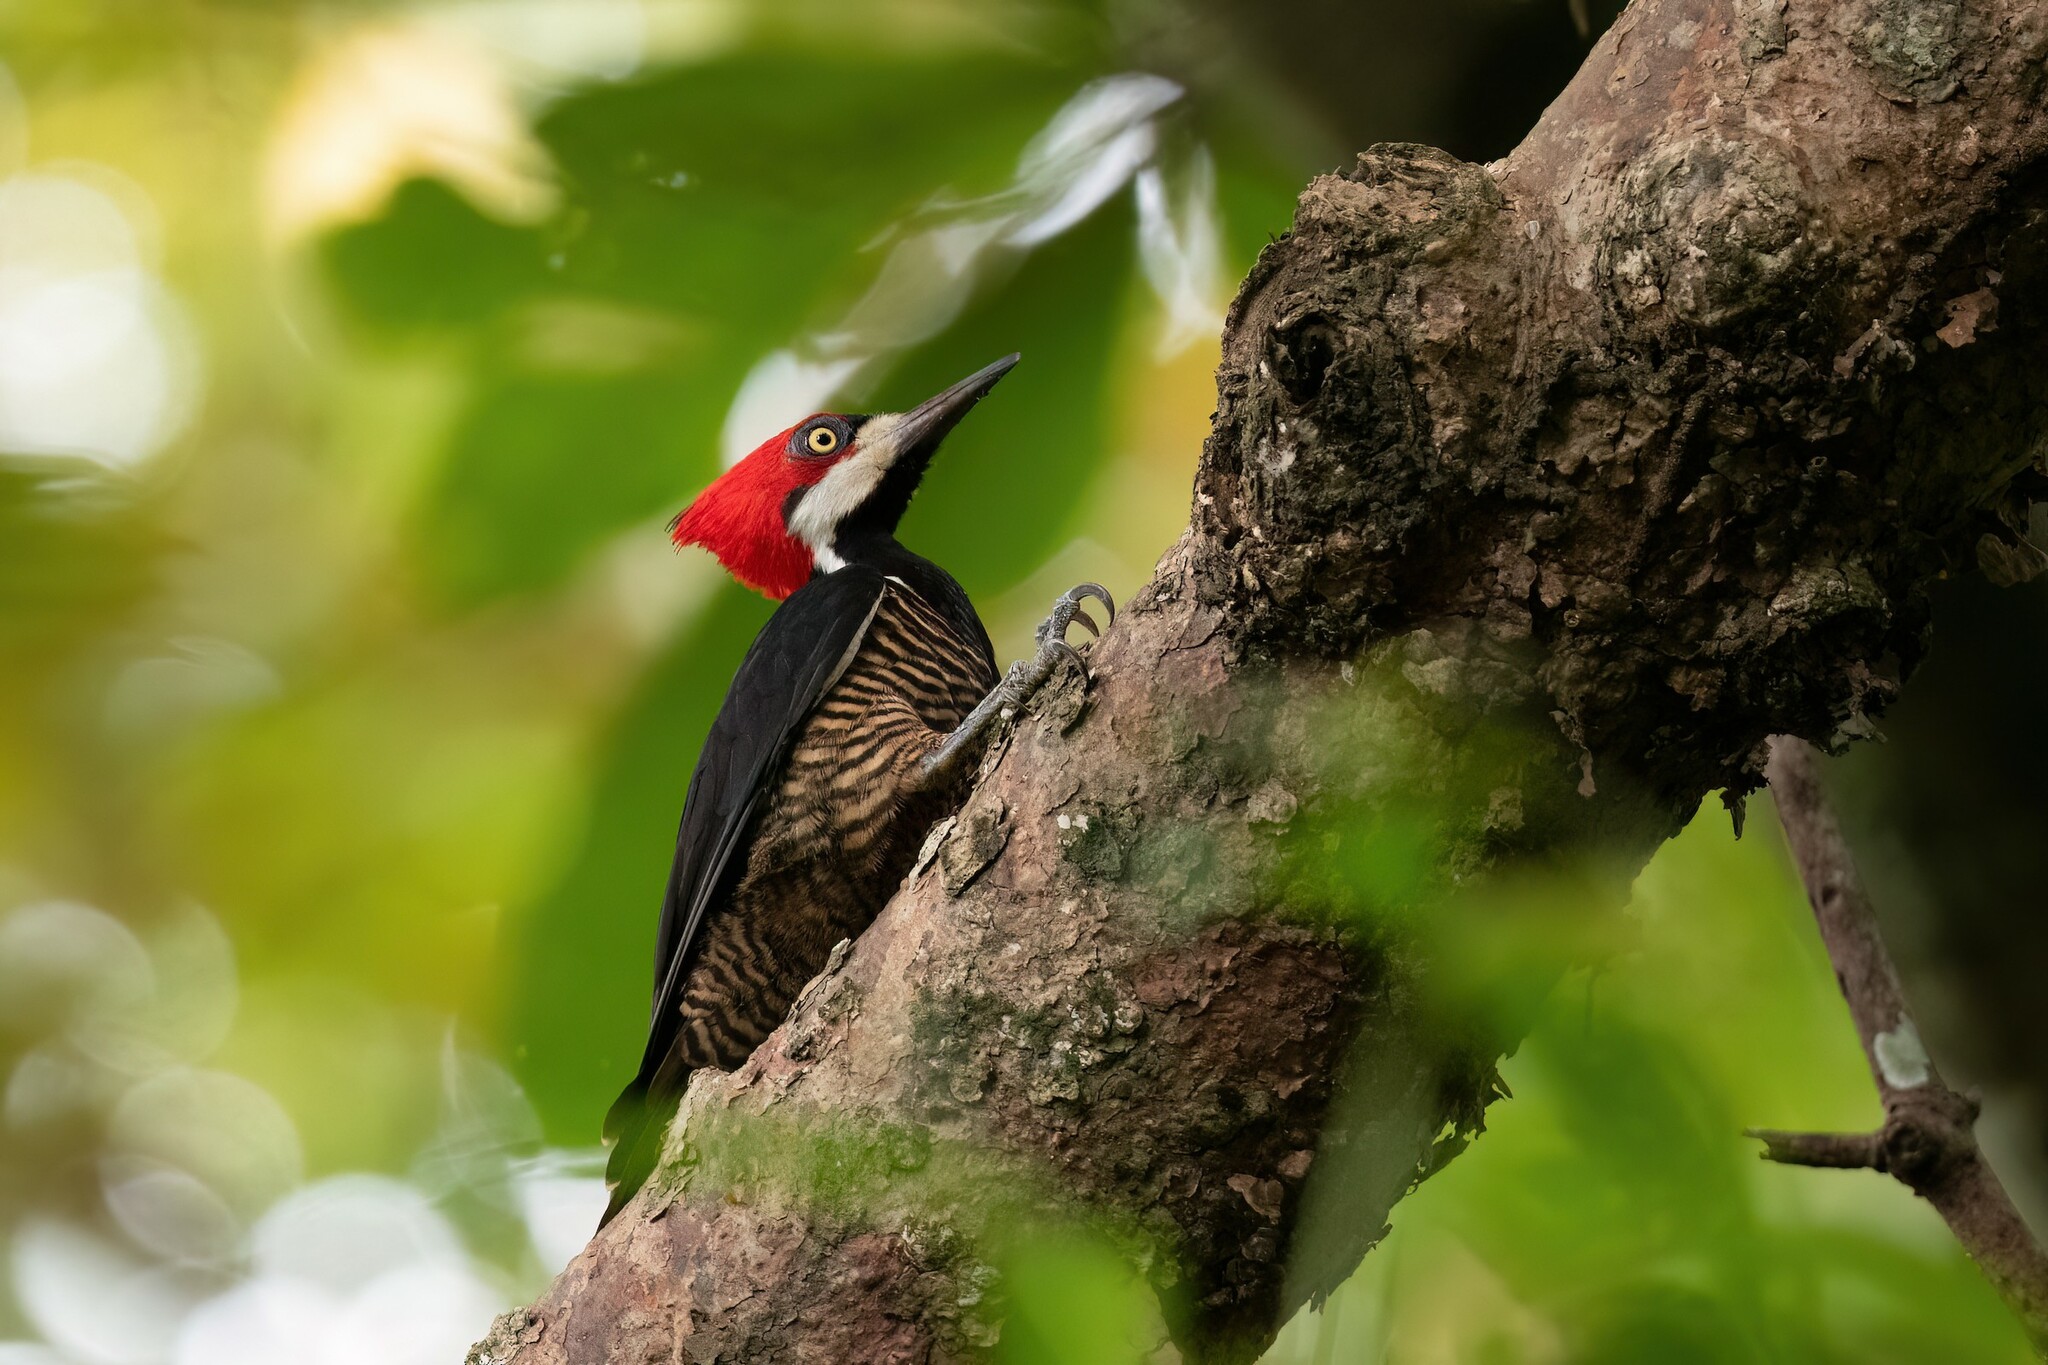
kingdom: Animalia
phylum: Chordata
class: Aves
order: Piciformes
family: Picidae
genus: Campephilus
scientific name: Campephilus melanoleucos
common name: Crimson-crested woodpecker
